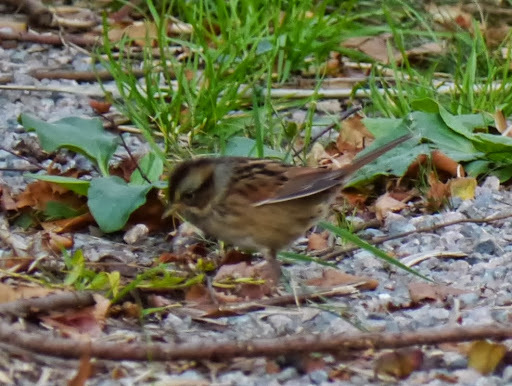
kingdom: Animalia
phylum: Chordata
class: Aves
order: Passeriformes
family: Passerellidae
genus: Melospiza
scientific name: Melospiza georgiana
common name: Swamp sparrow
